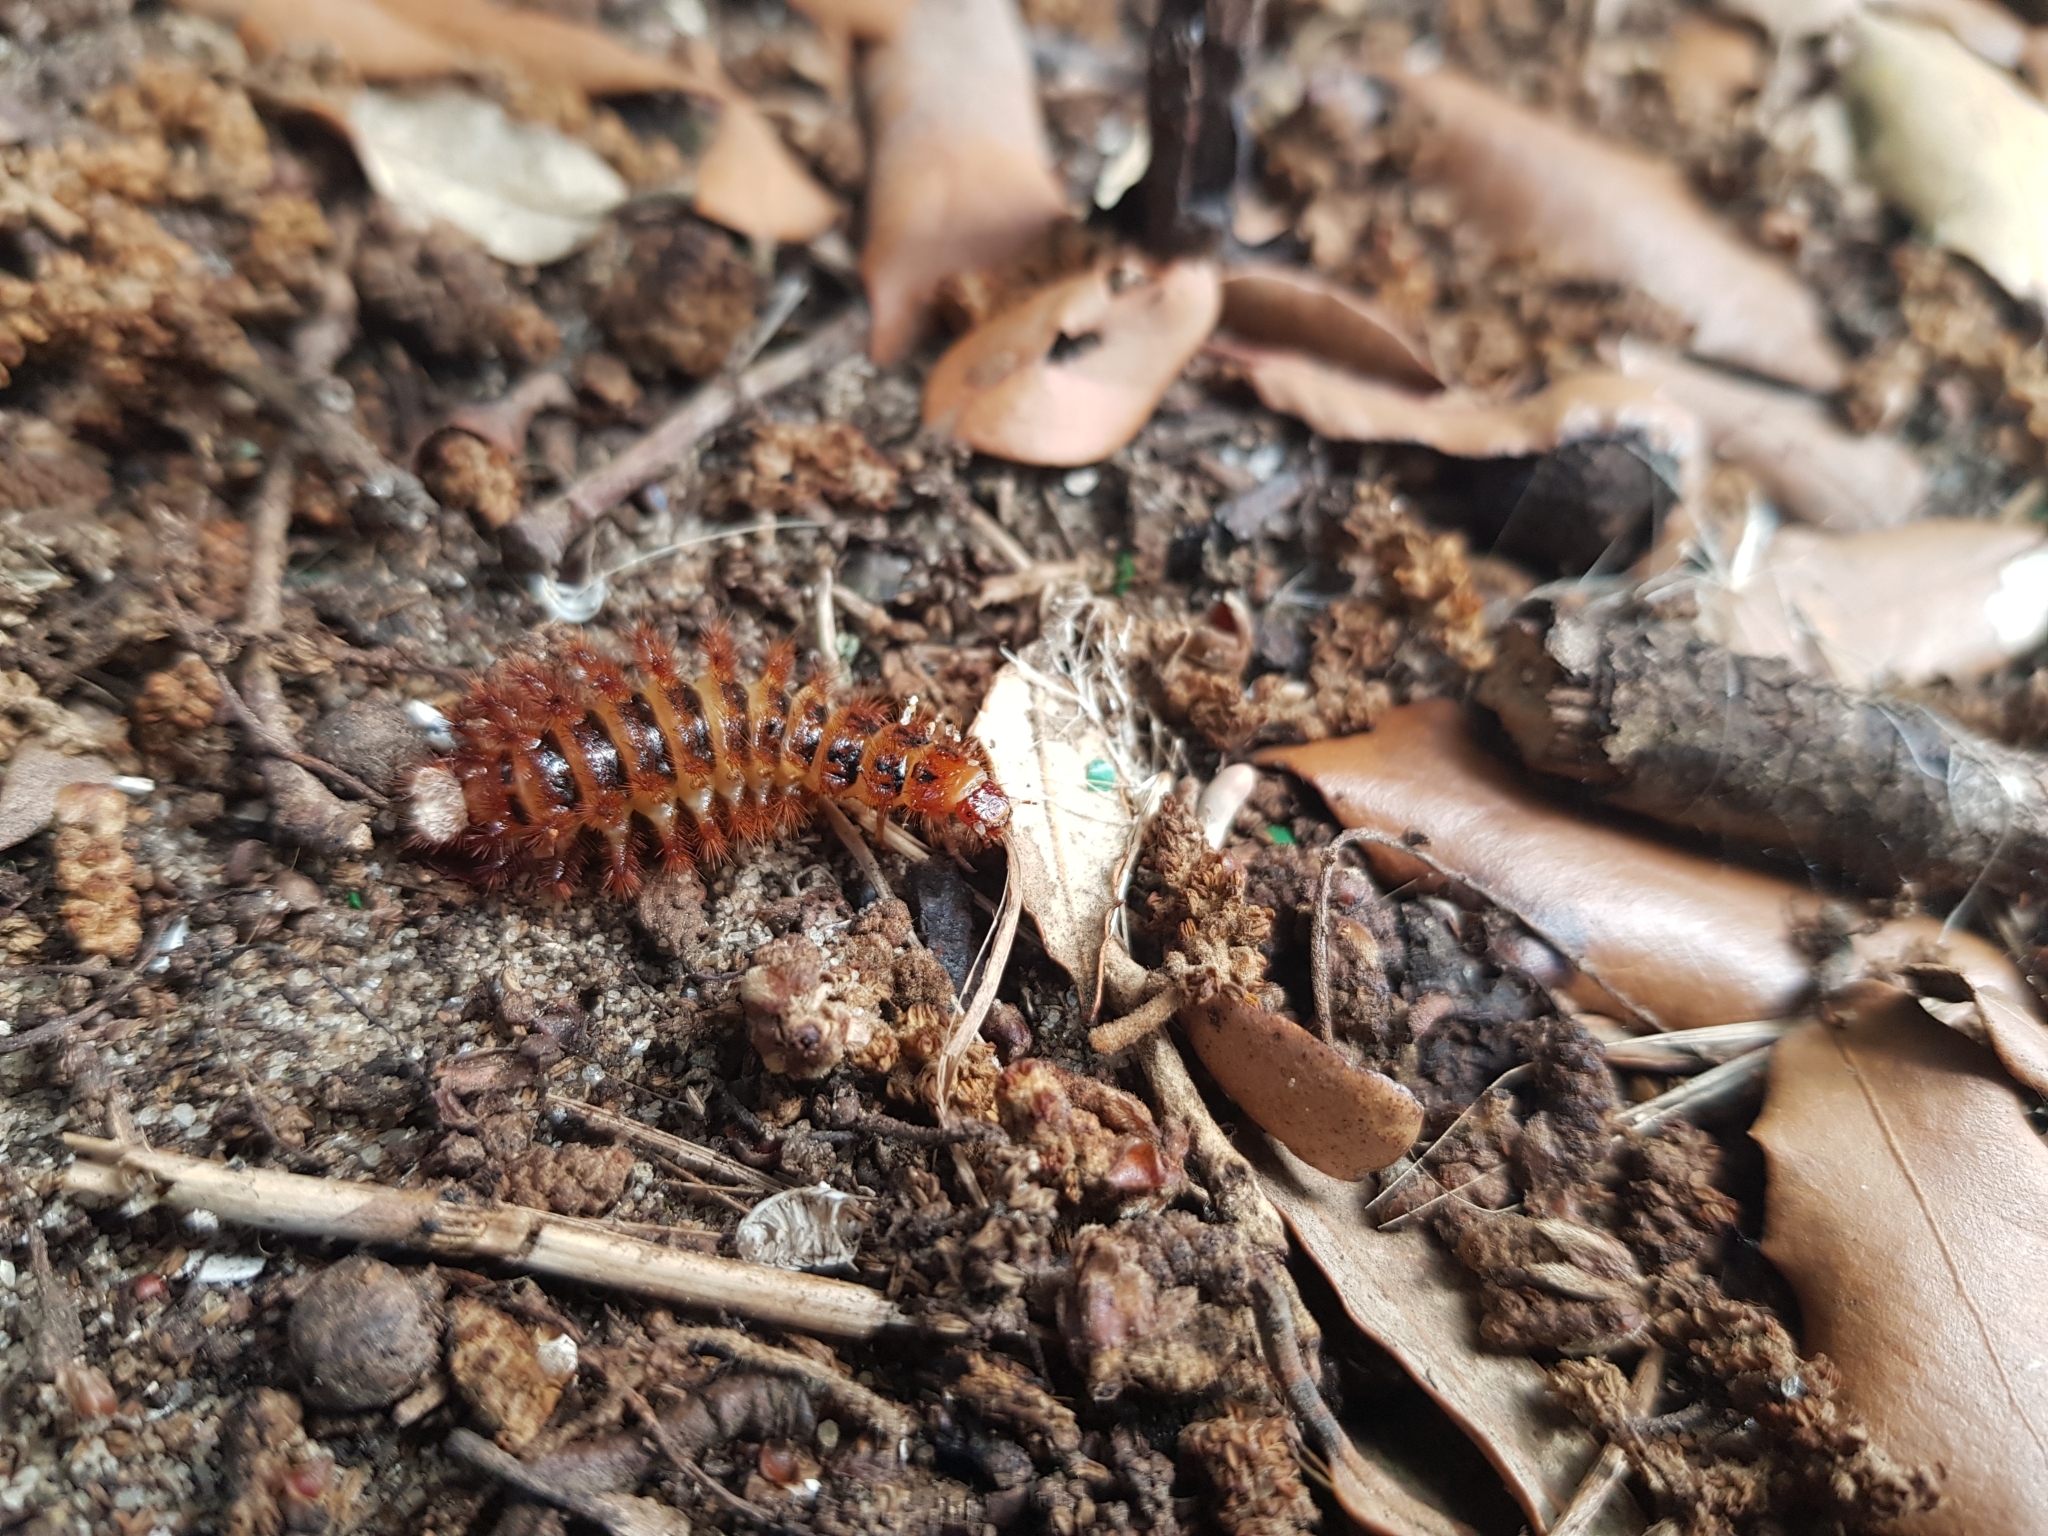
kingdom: Animalia
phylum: Arthropoda
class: Insecta
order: Coleoptera
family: Drilidae
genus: Drilus
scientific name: Drilus flavescens
